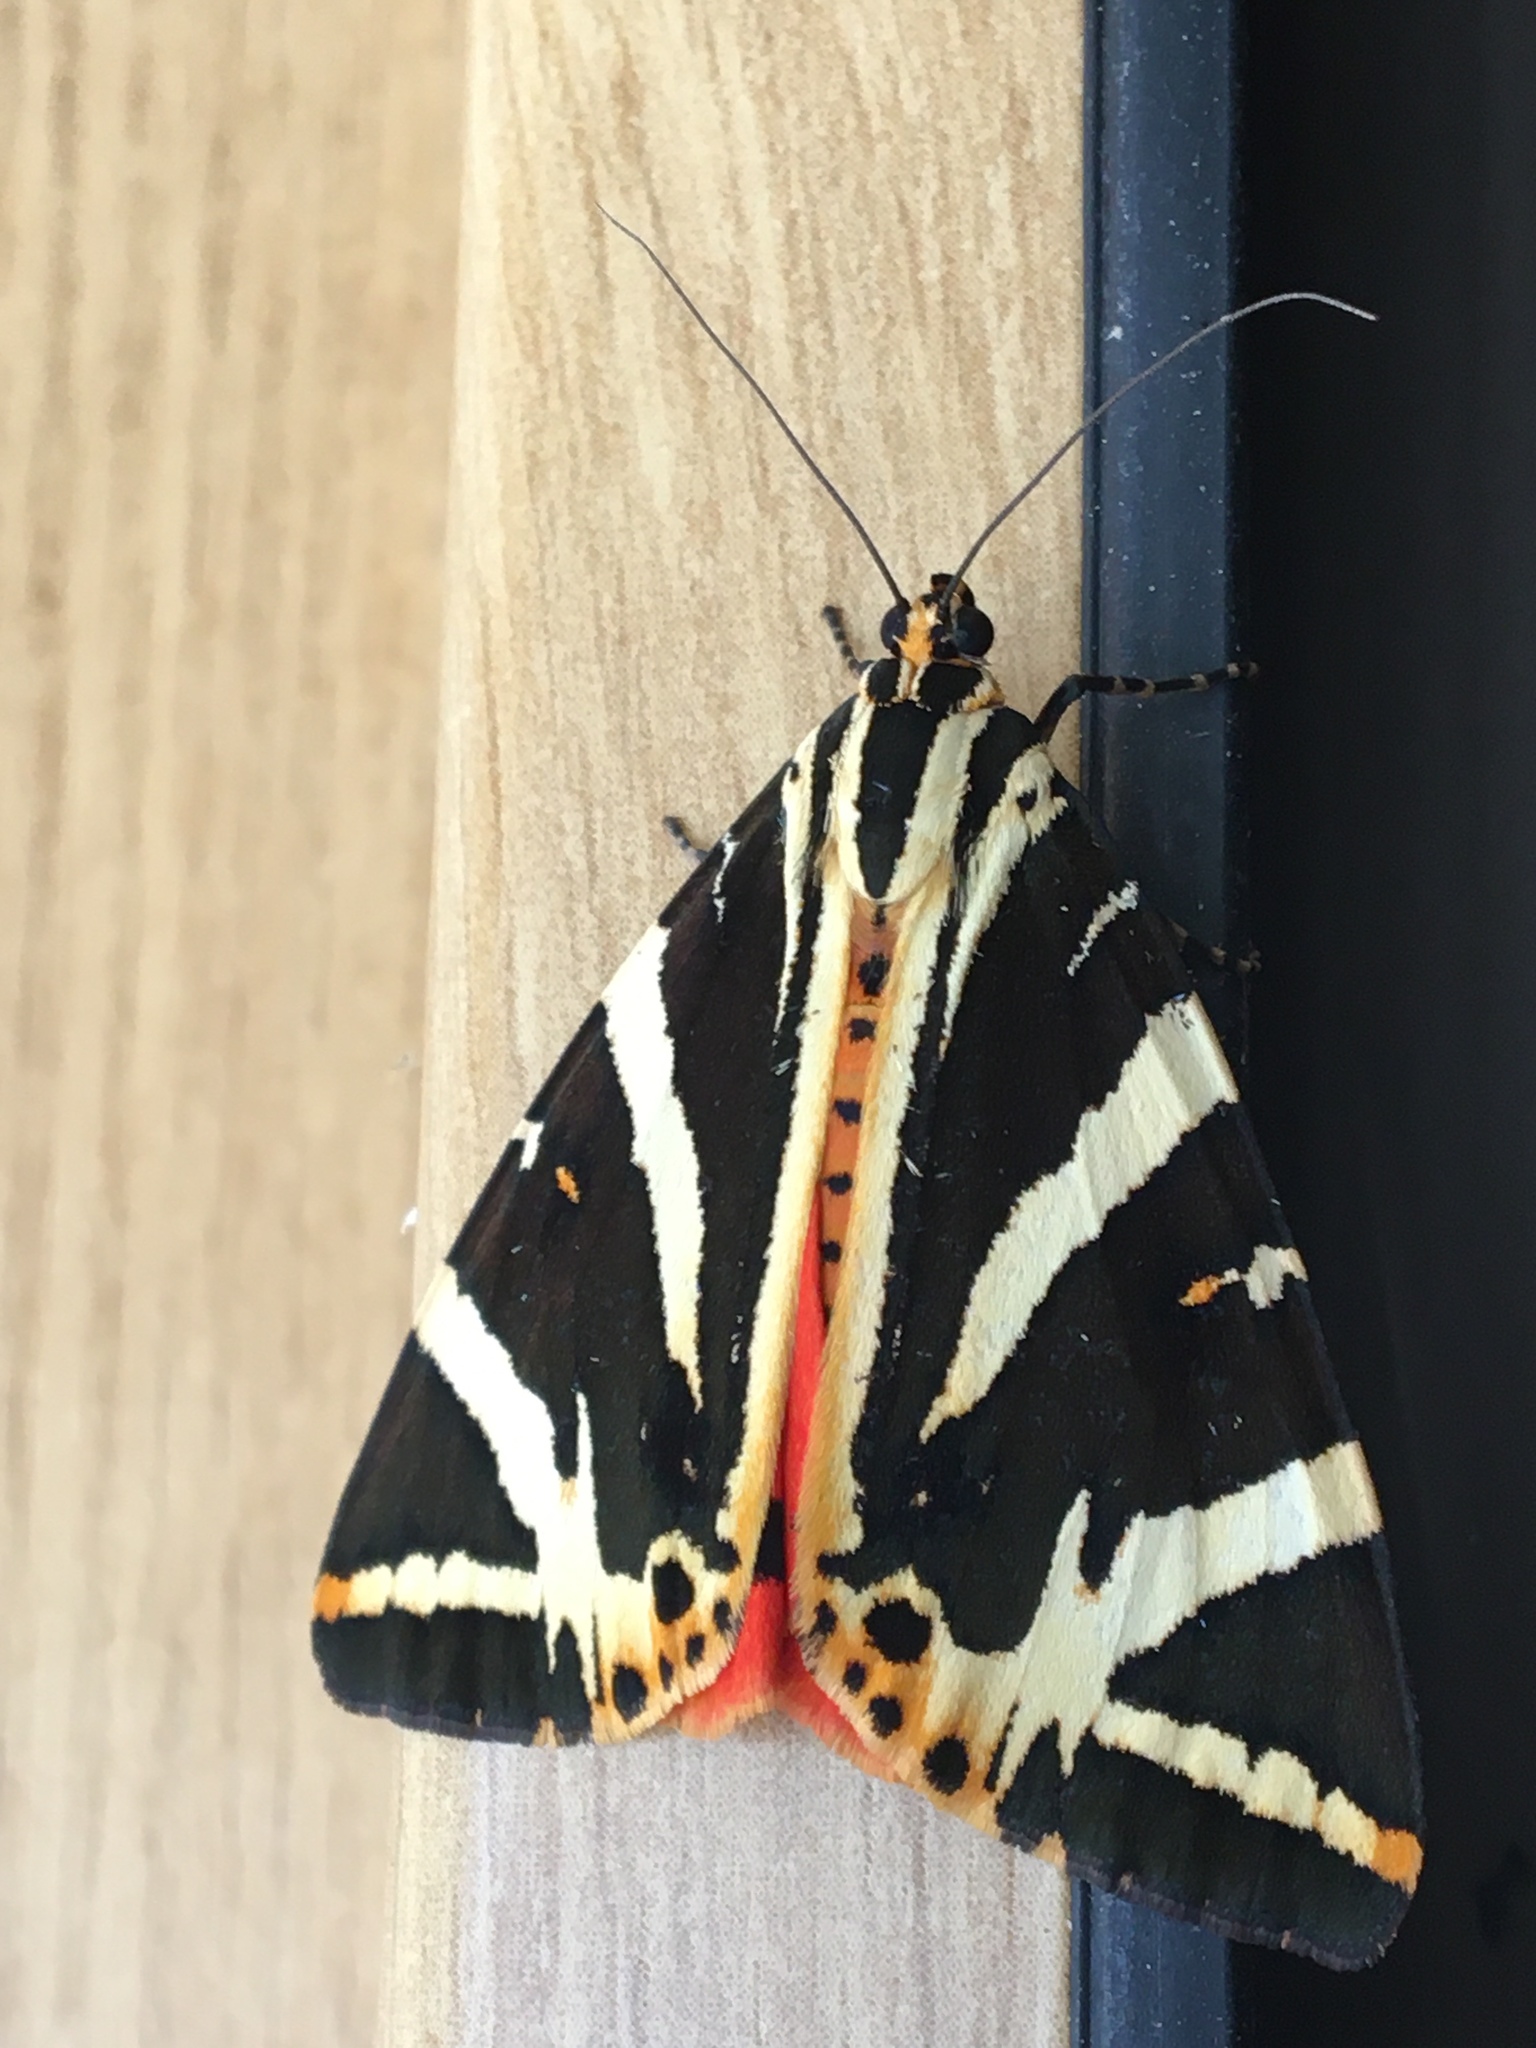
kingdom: Animalia
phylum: Arthropoda
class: Insecta
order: Lepidoptera
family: Erebidae
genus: Euplagia
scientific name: Euplagia quadripunctaria
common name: Jersey tiger
